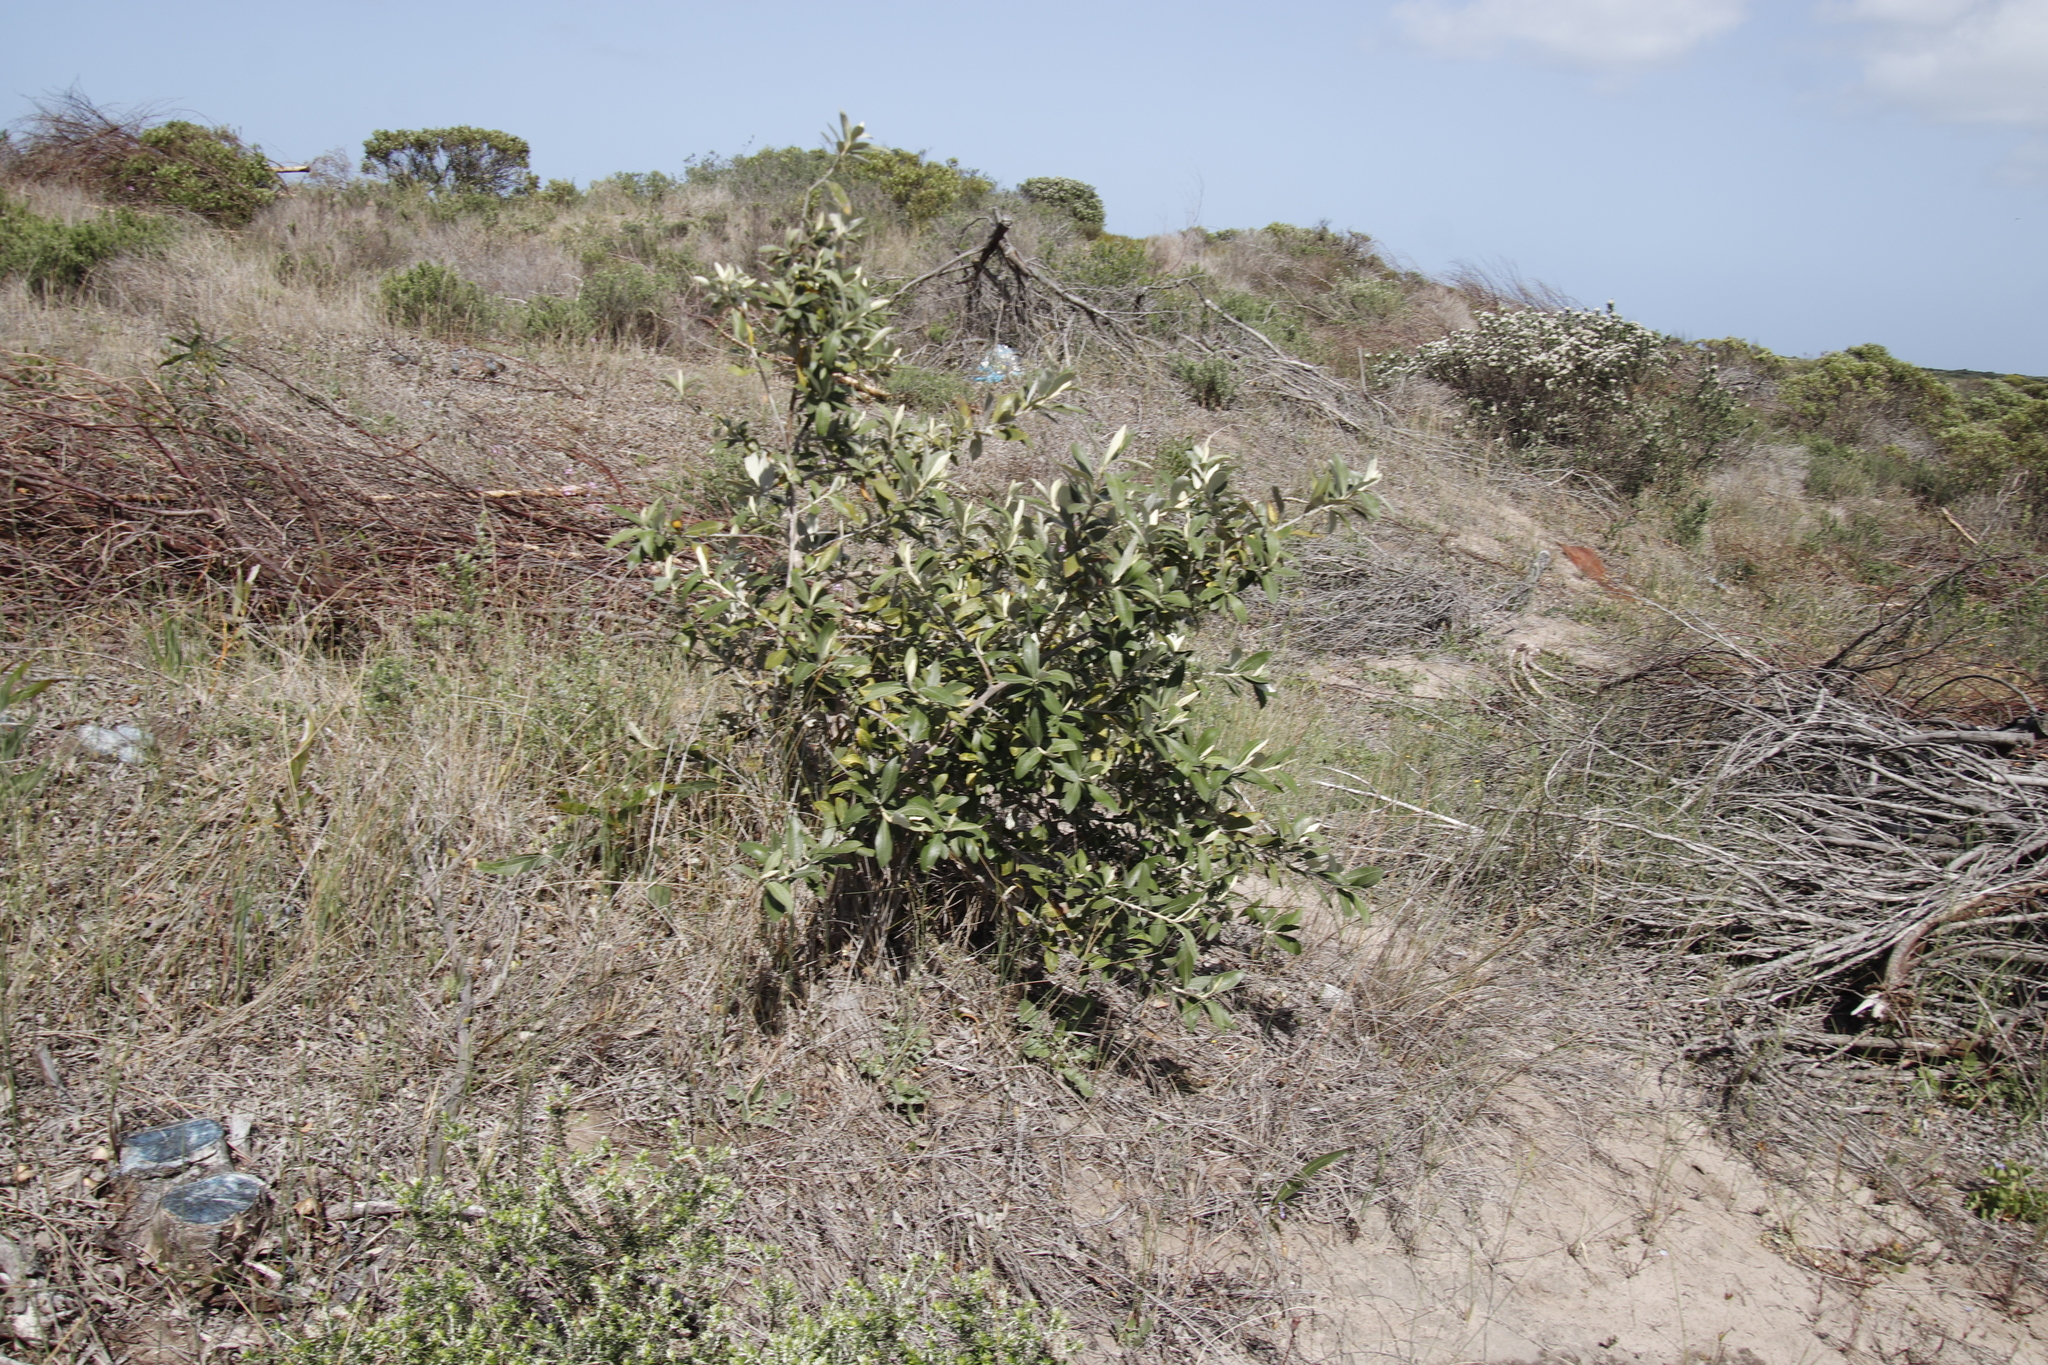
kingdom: Plantae
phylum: Tracheophyta
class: Magnoliopsida
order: Asterales
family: Asteraceae
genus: Tarchonanthus
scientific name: Tarchonanthus littoralis
